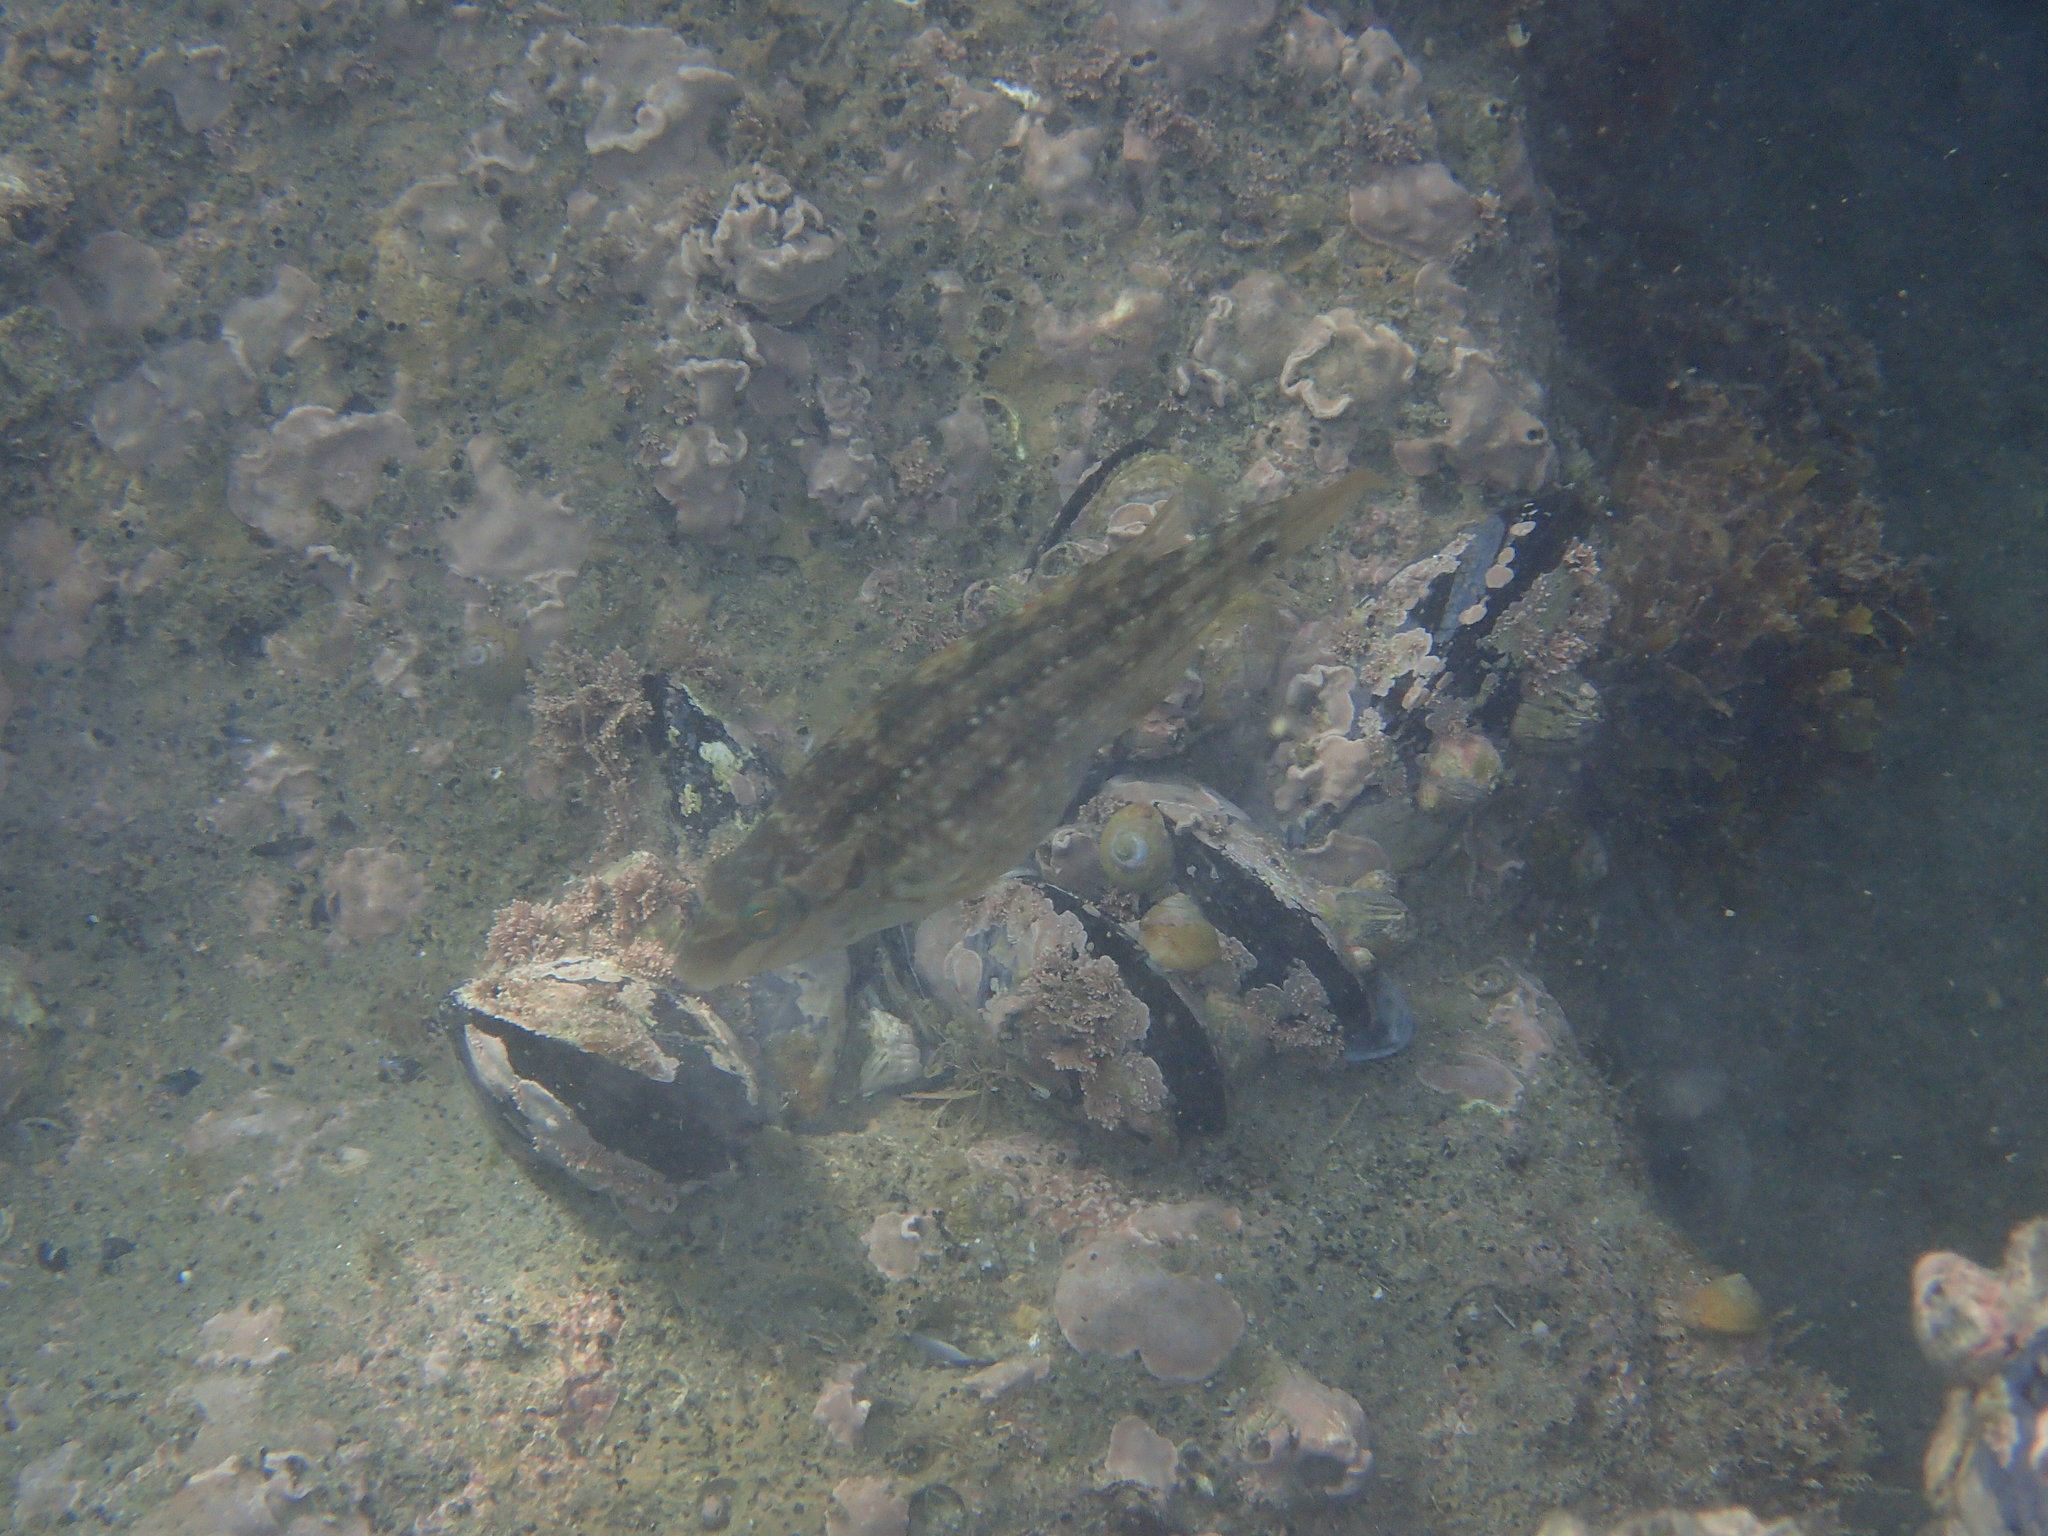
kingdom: Animalia
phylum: Chordata
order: Perciformes
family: Labridae
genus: Symphodus
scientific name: Symphodus melops
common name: Corkwing
